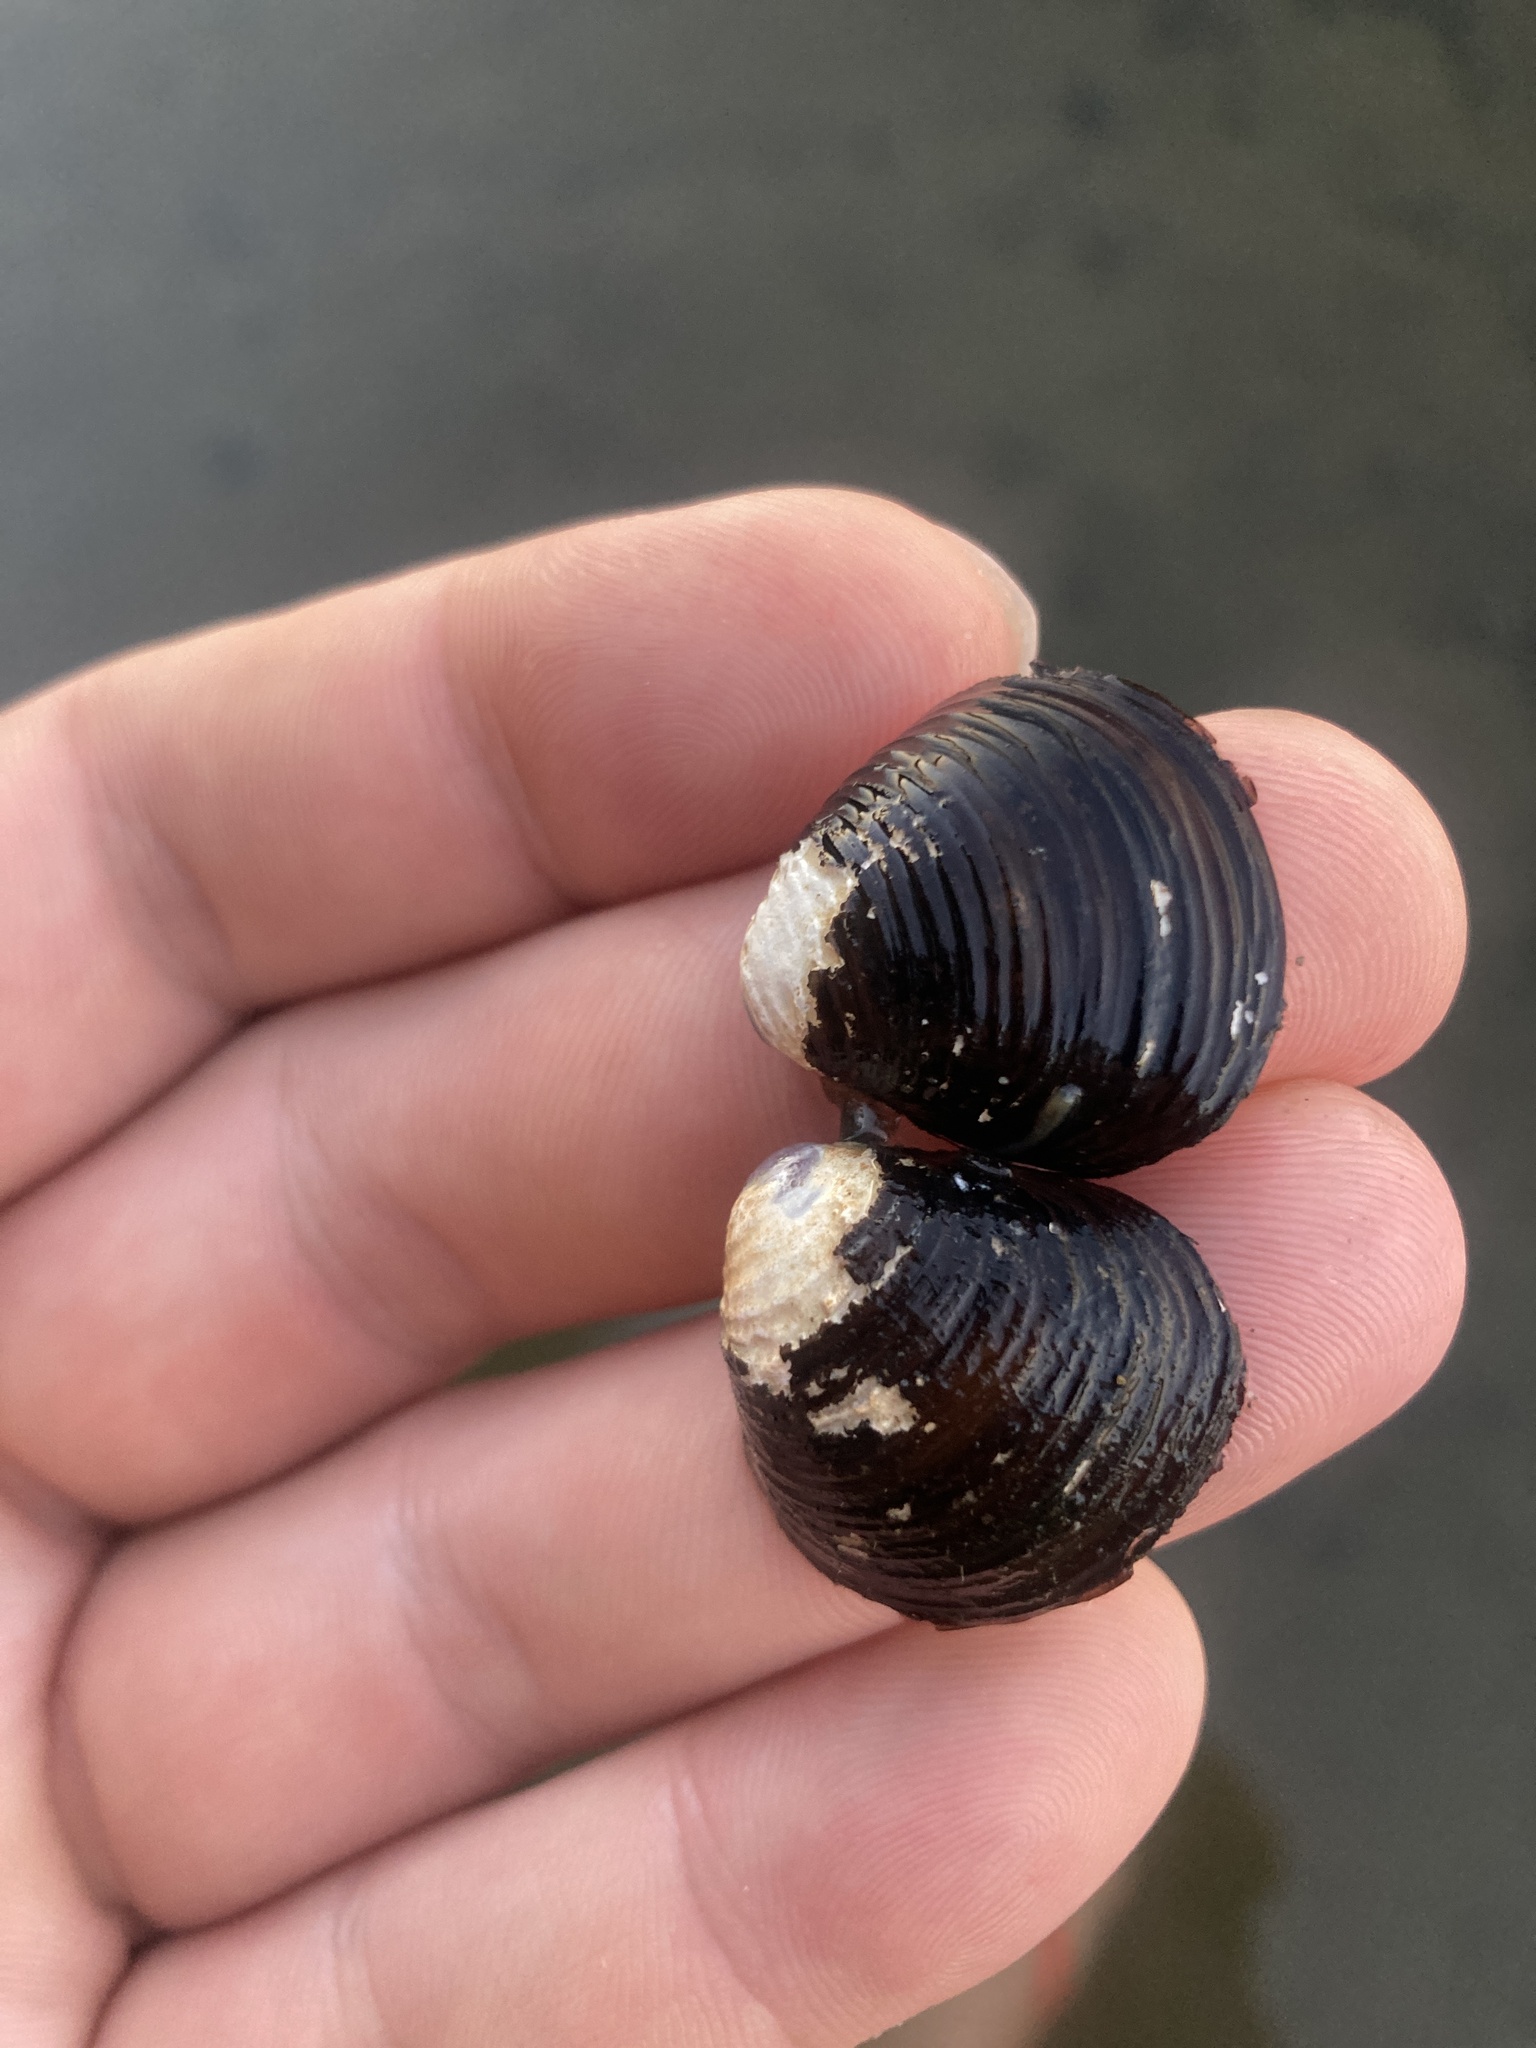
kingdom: Animalia
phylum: Mollusca
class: Bivalvia
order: Venerida
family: Cyrenidae
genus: Corbicula
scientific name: Corbicula fluminea
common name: Asian clam
